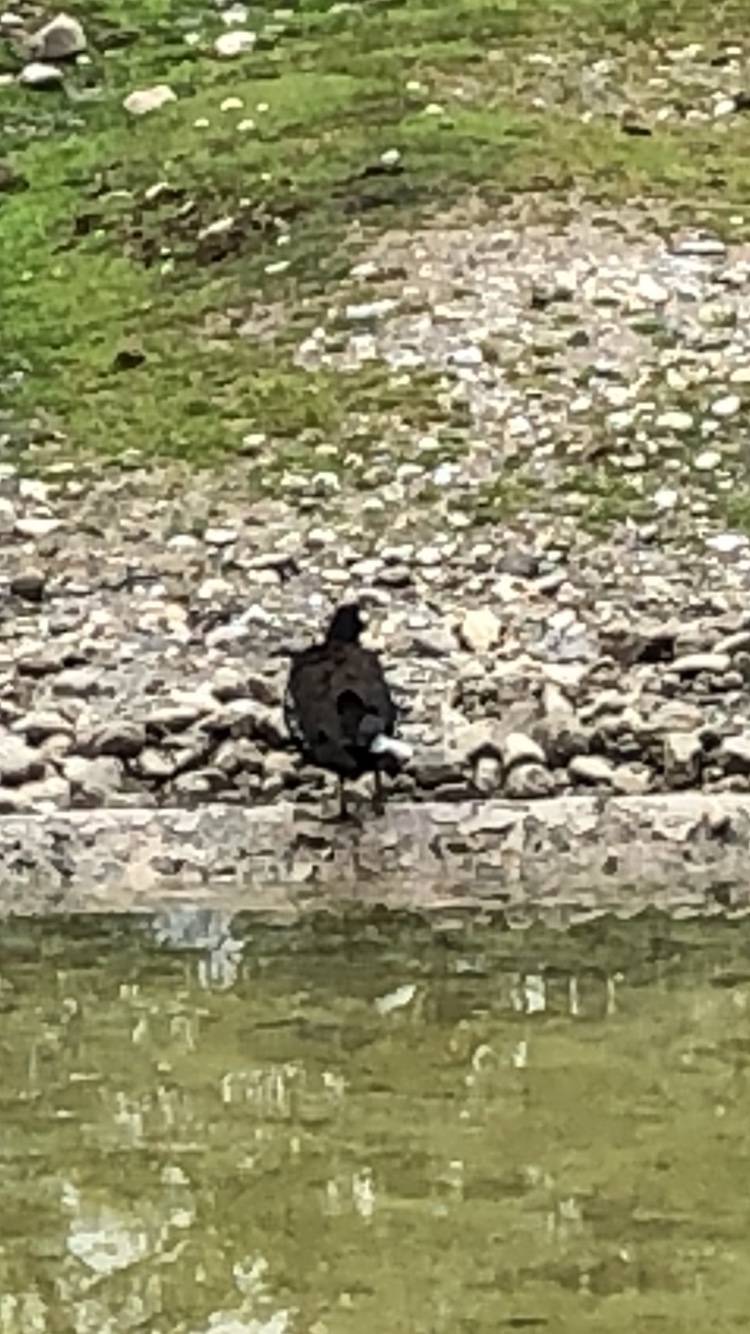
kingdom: Animalia
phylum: Chordata
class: Aves
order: Gruiformes
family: Rallidae
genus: Gallinula
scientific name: Gallinula chloropus
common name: Common moorhen
